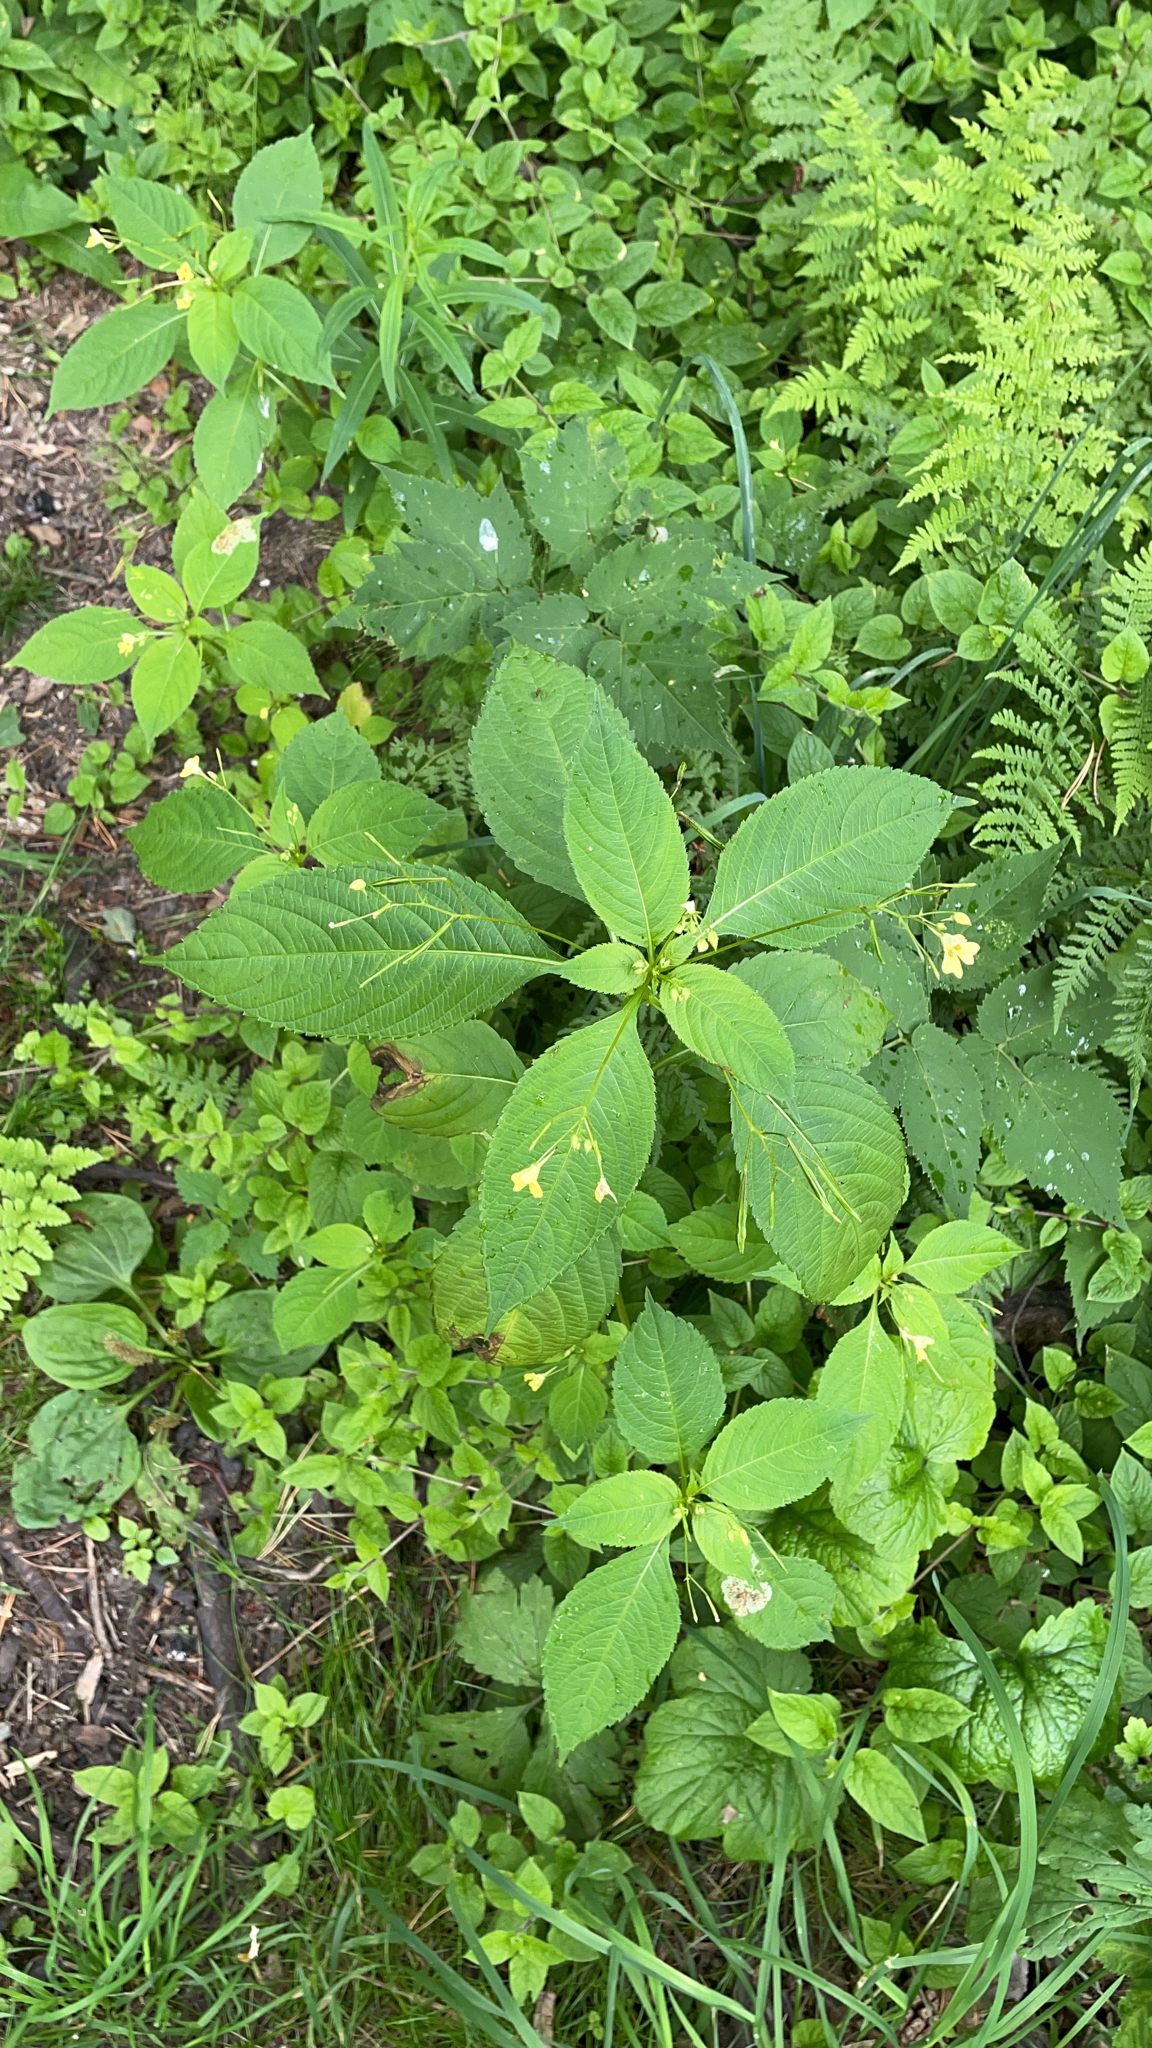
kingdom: Plantae
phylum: Tracheophyta
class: Magnoliopsida
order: Ericales
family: Balsaminaceae
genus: Impatiens
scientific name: Impatiens parviflora
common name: Small balsam
